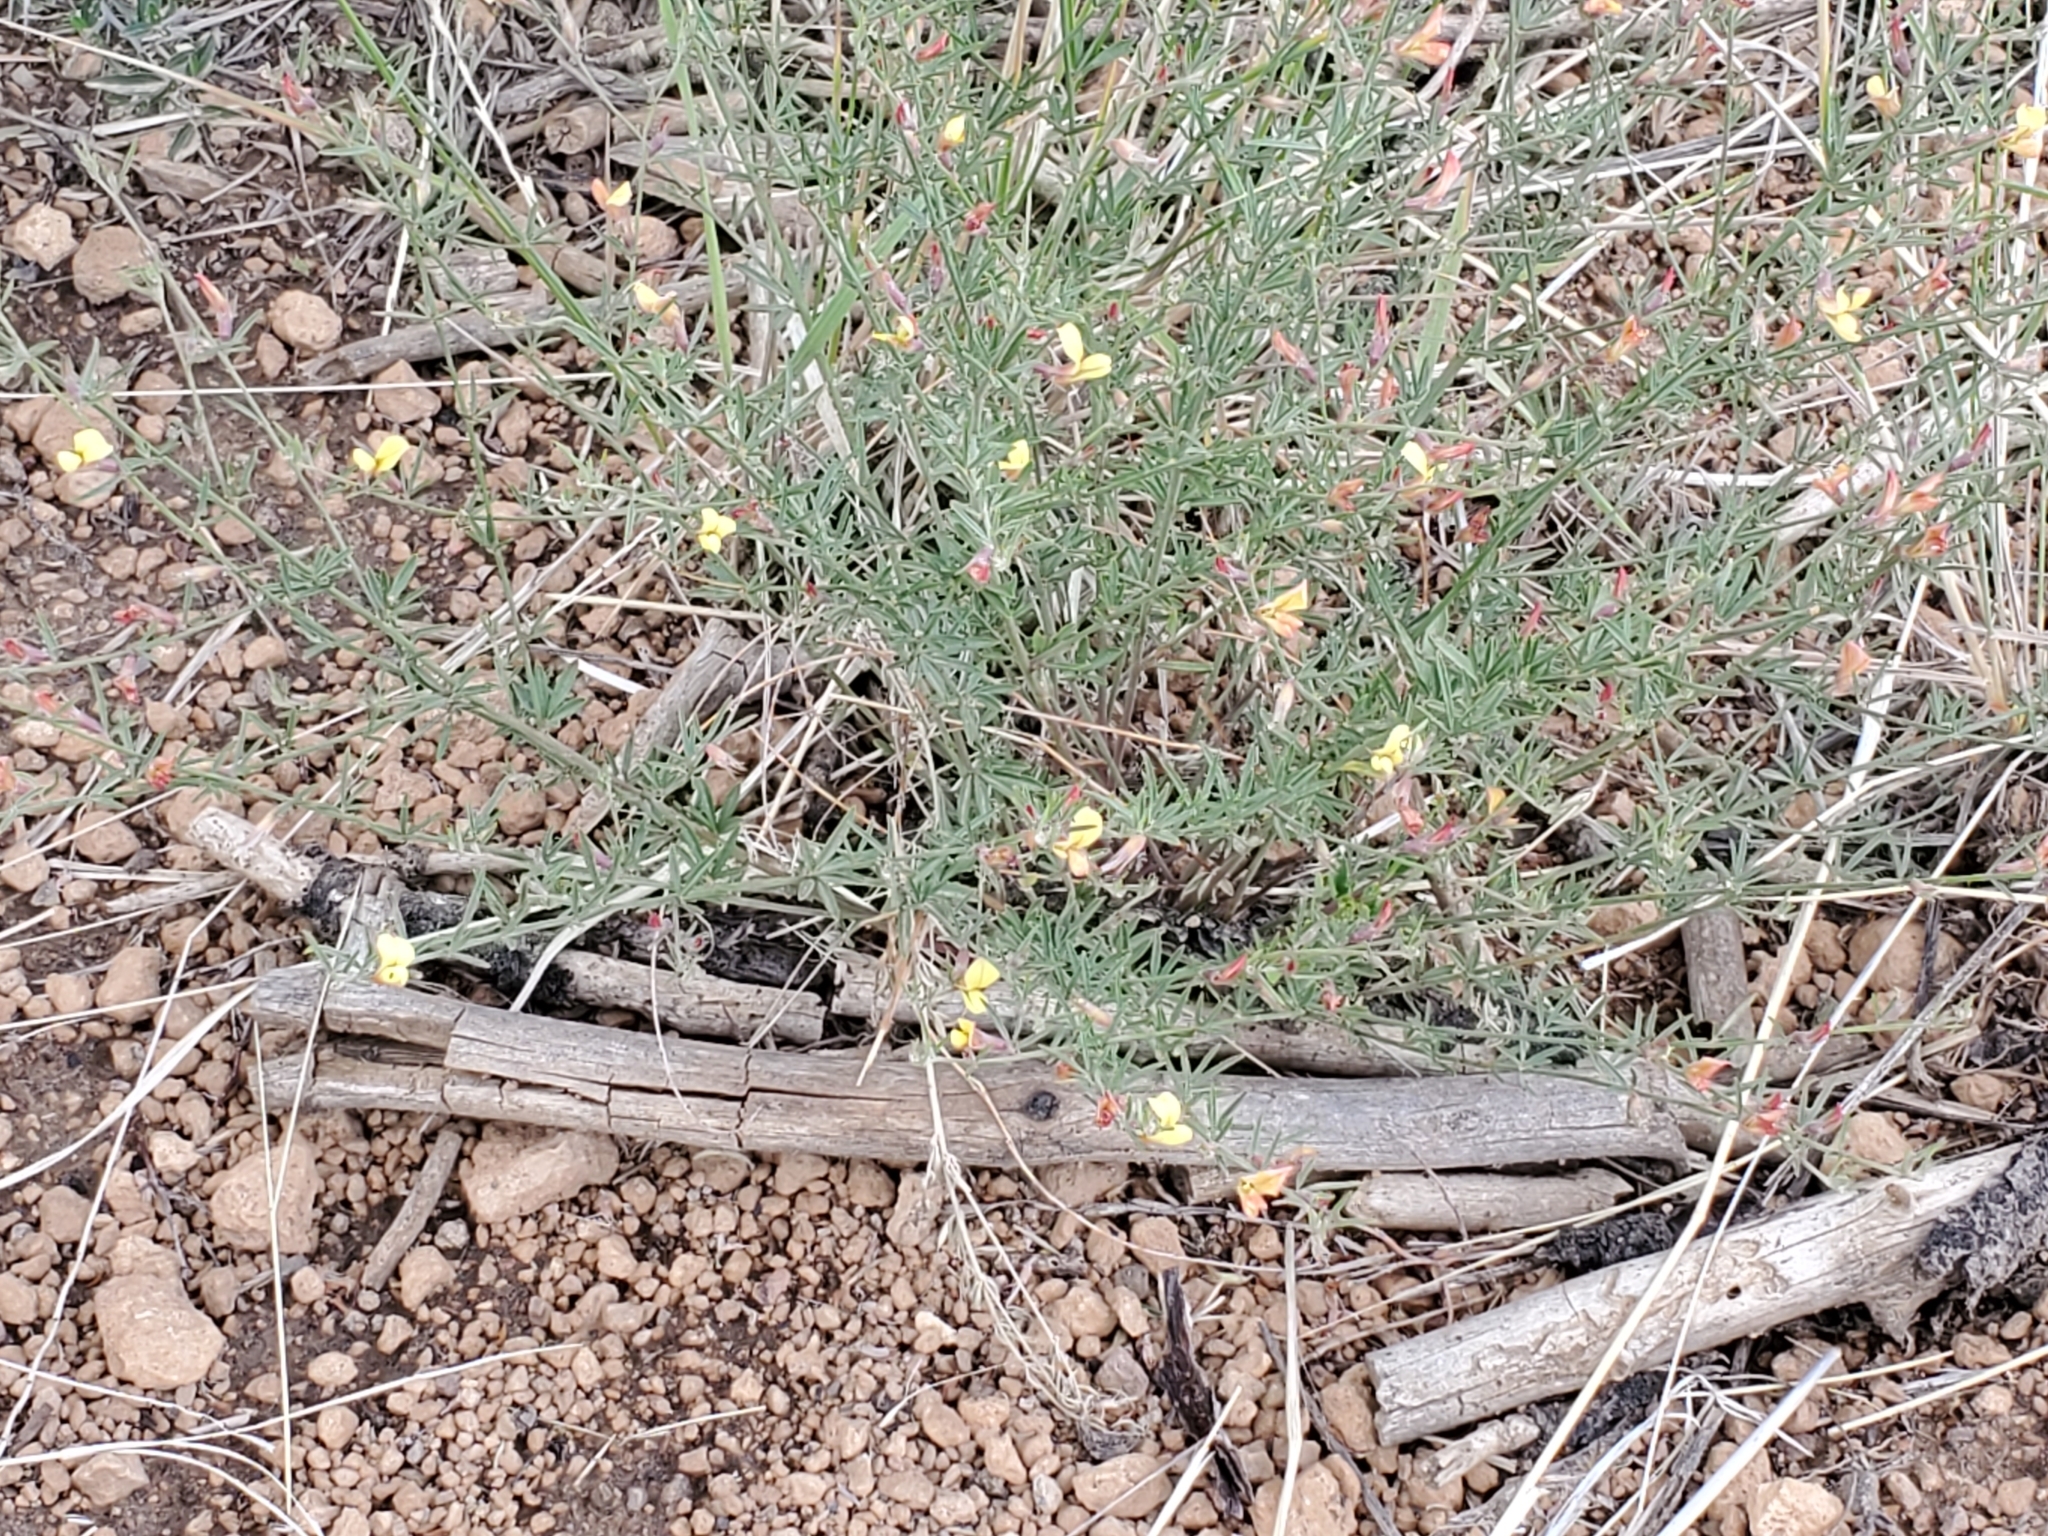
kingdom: Plantae
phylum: Tracheophyta
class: Magnoliopsida
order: Fabales
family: Fabaceae
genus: Acmispon
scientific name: Acmispon wrightii
